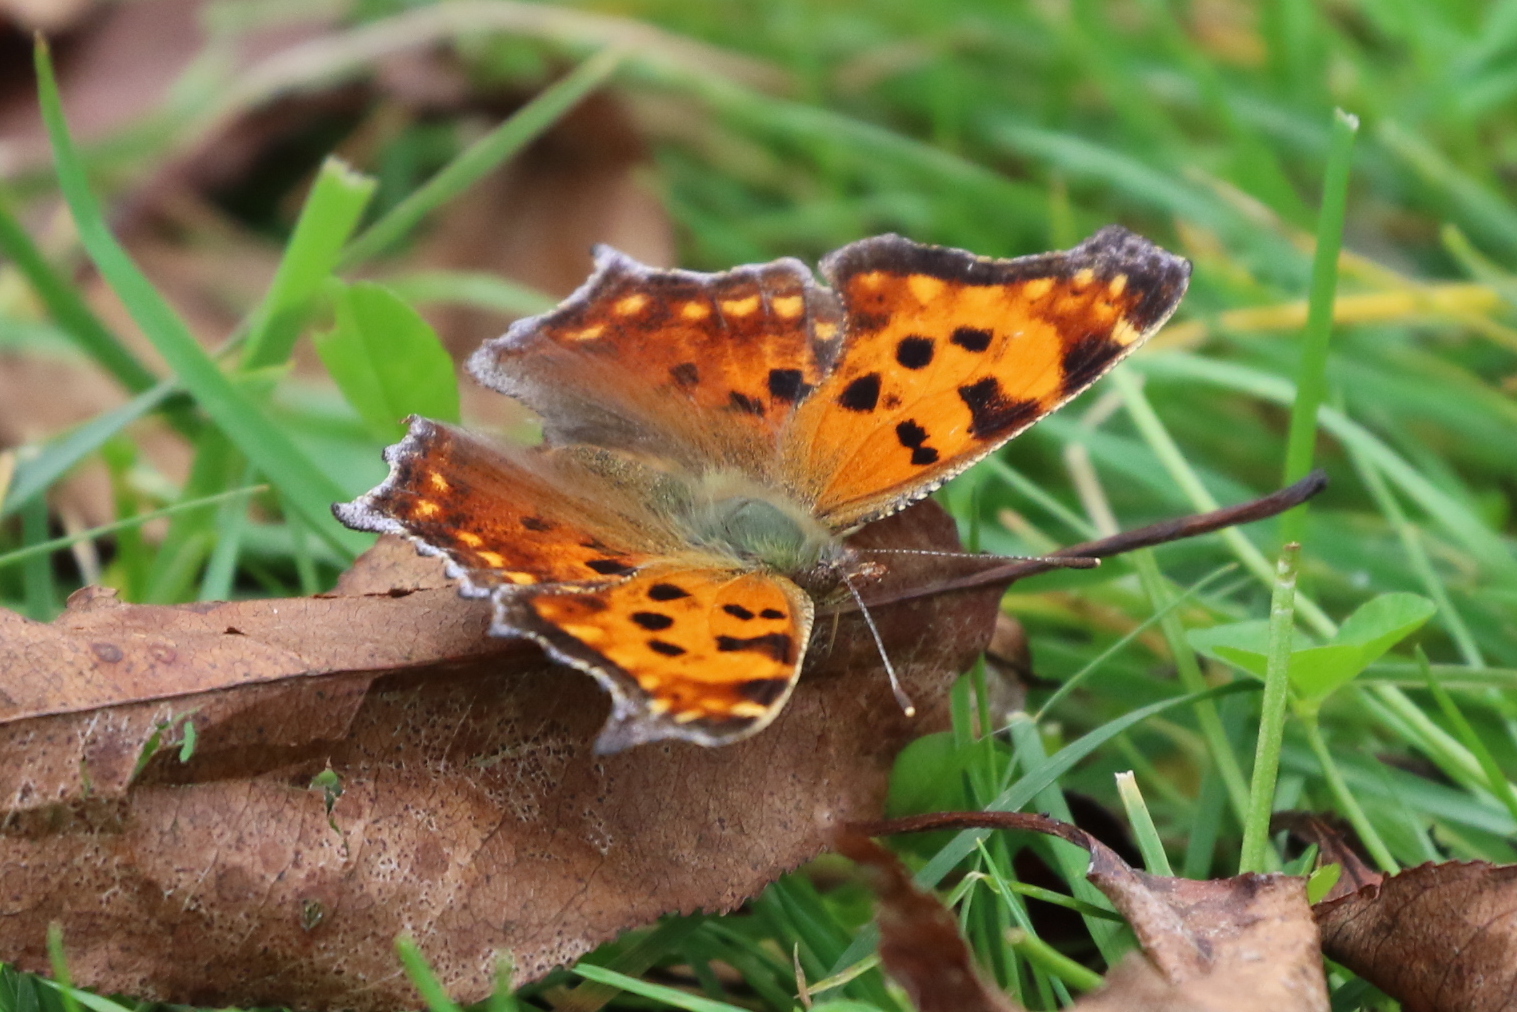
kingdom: Animalia
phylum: Arthropoda
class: Insecta
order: Lepidoptera
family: Nymphalidae
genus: Polygonia
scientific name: Polygonia comma
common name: Eastern comma
